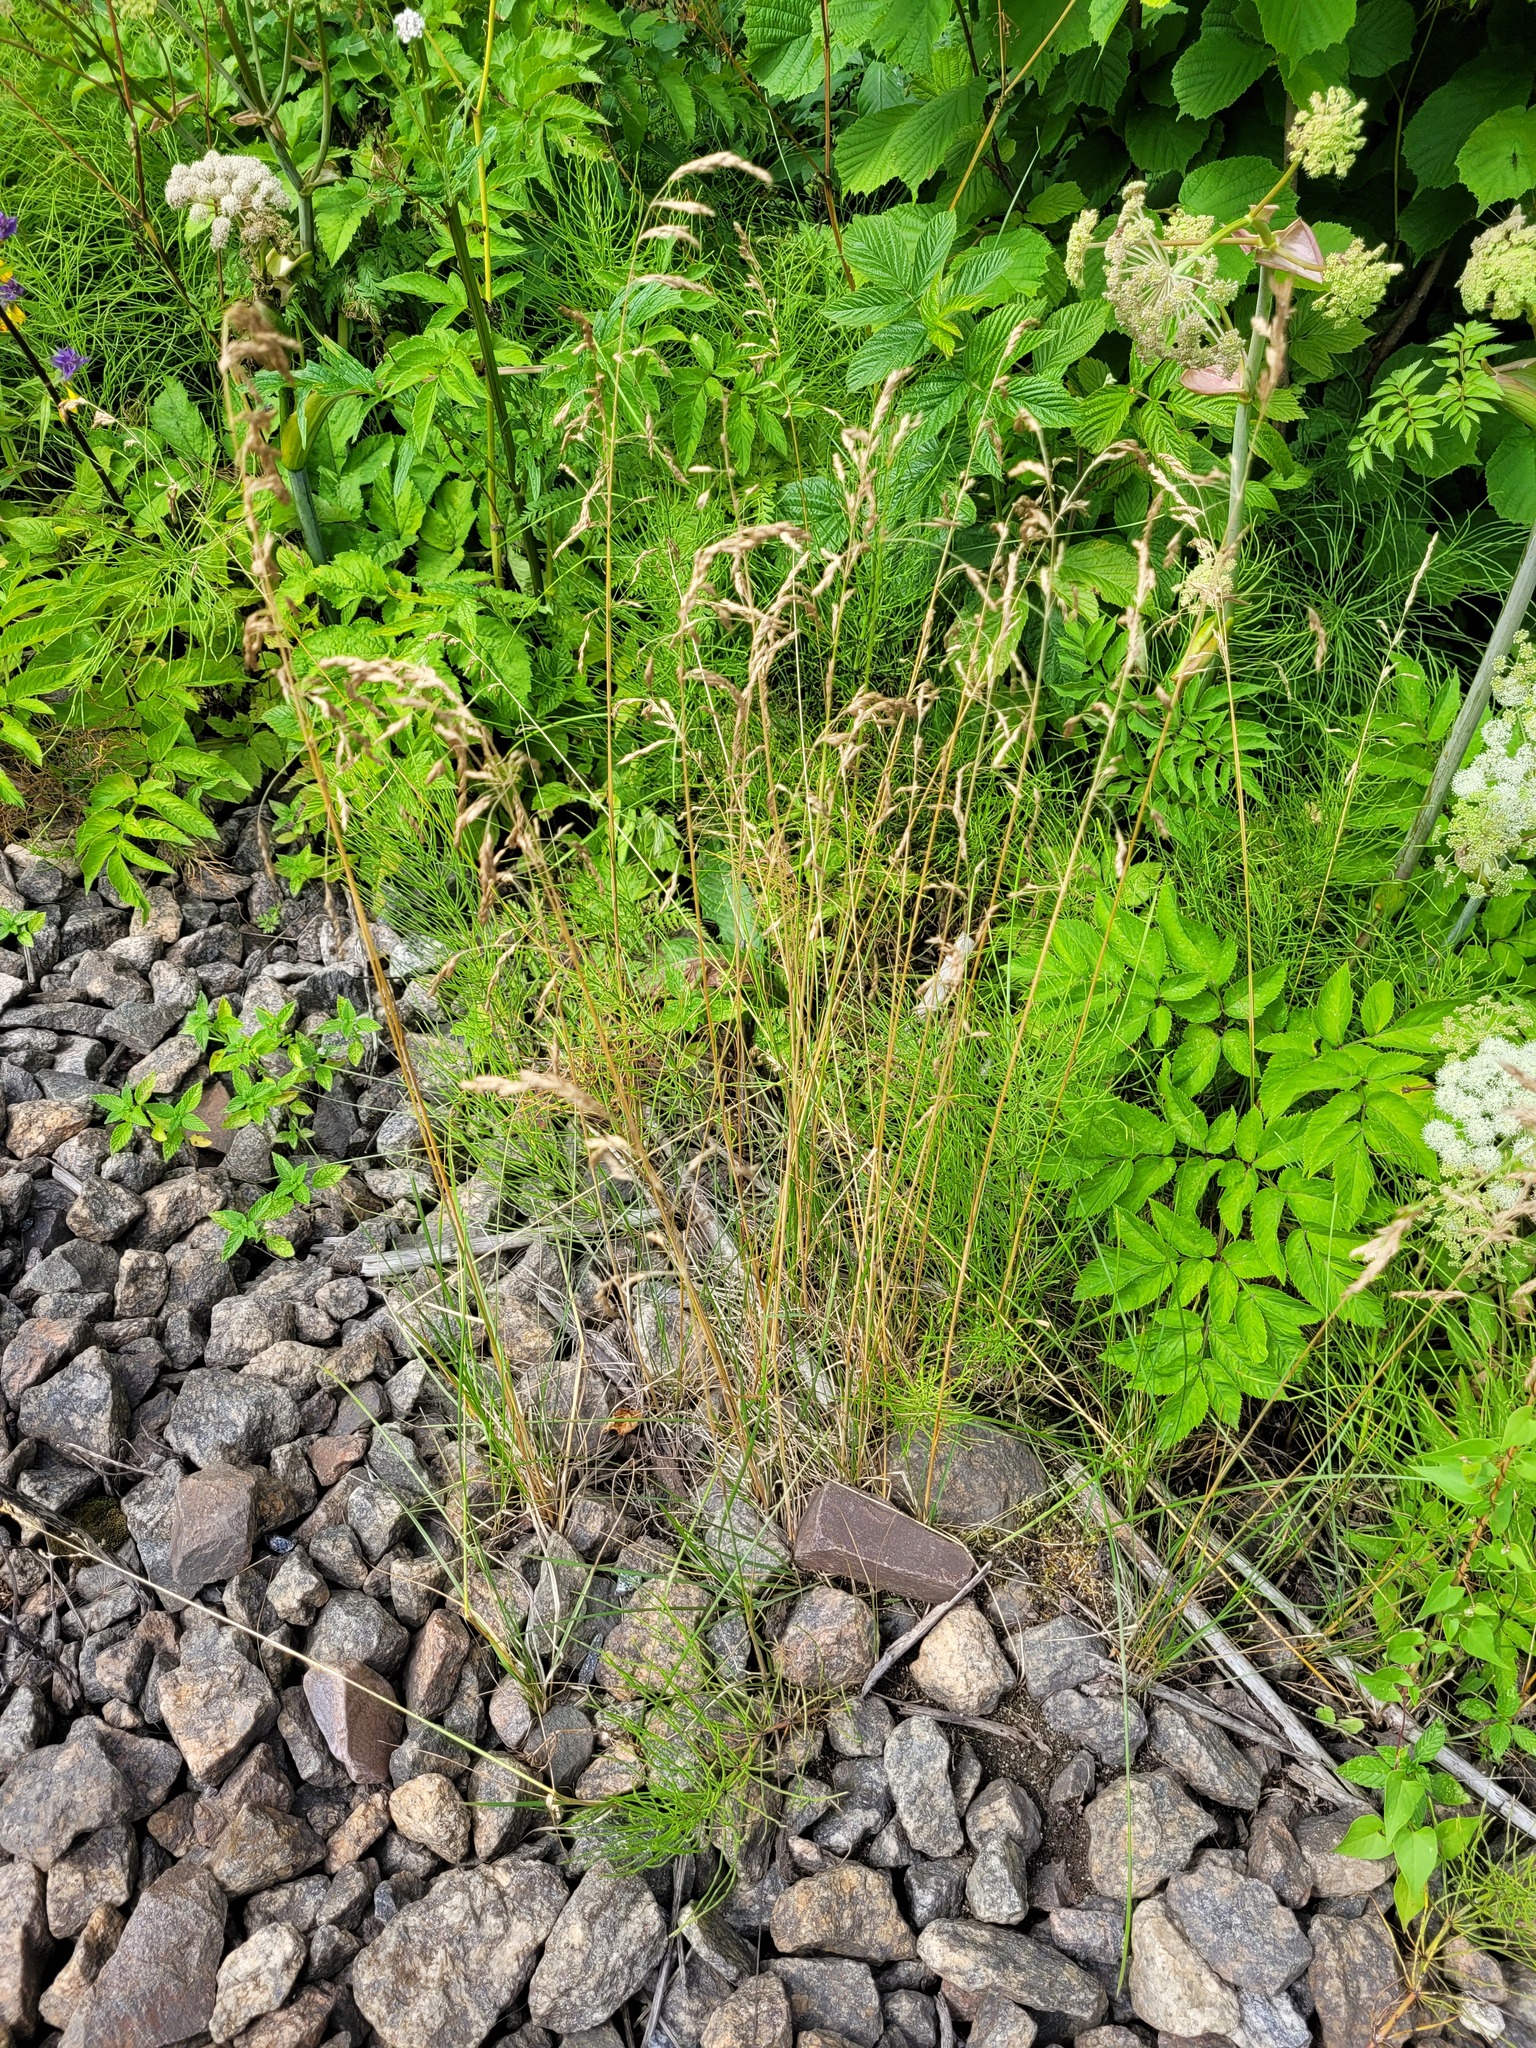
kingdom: Plantae
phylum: Tracheophyta
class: Liliopsida
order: Poales
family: Poaceae
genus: Poa
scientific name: Poa angustifolia
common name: Narrow-leaved meadow-grass
